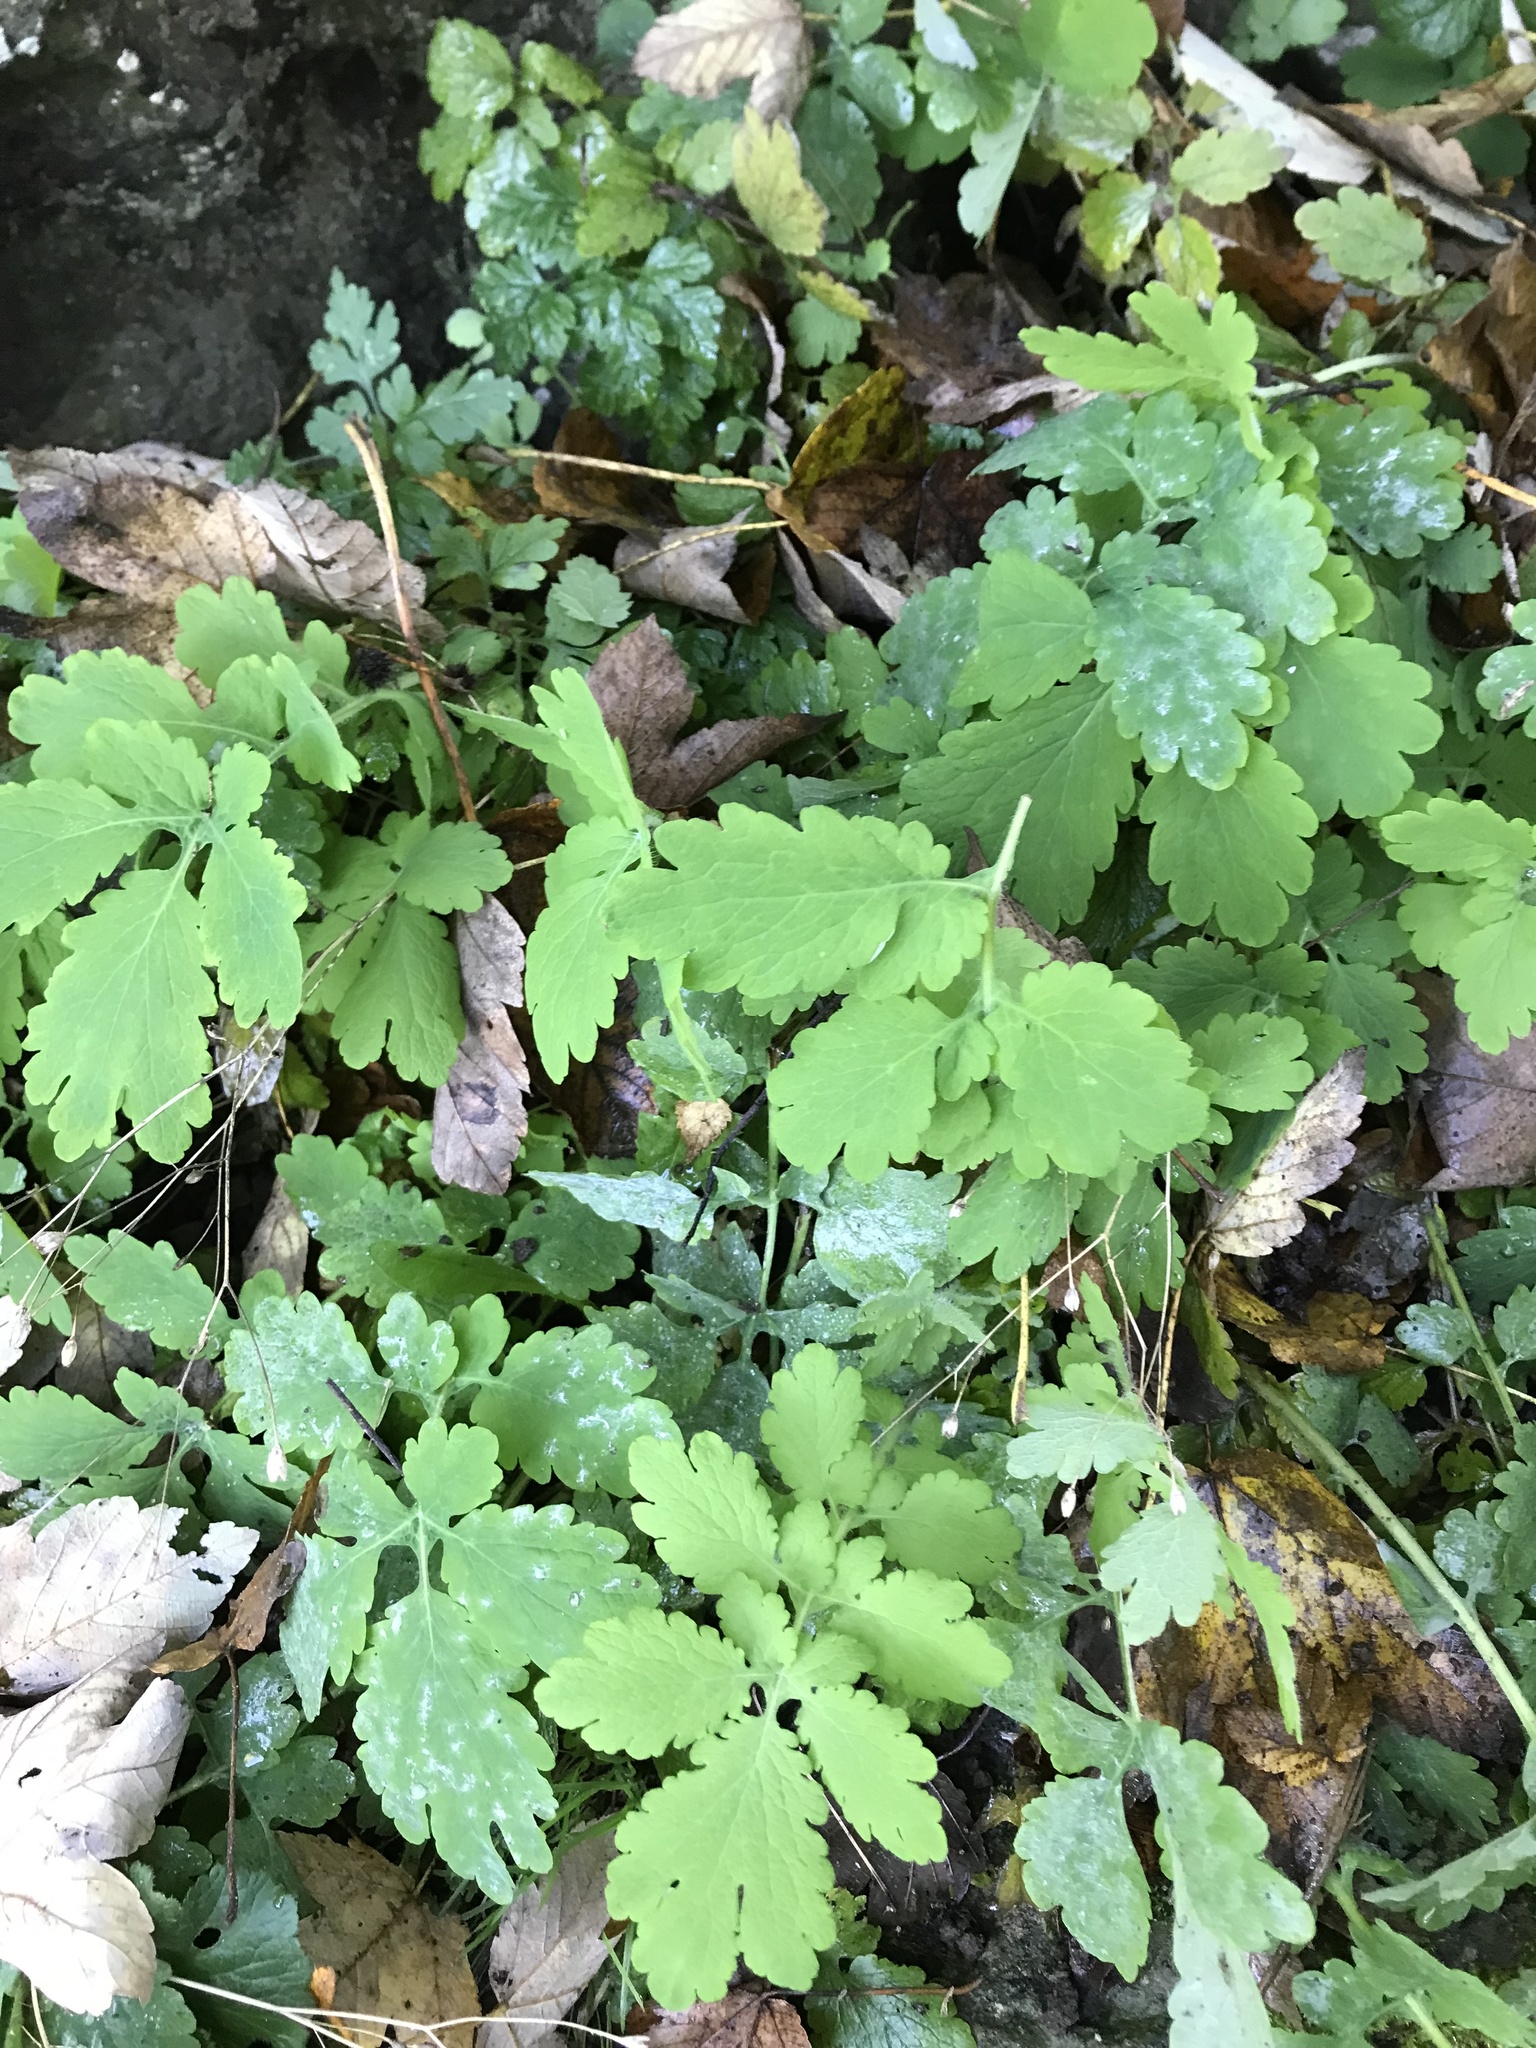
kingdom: Plantae
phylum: Tracheophyta
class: Magnoliopsida
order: Ranunculales
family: Papaveraceae
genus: Chelidonium
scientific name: Chelidonium majus
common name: Greater celandine
